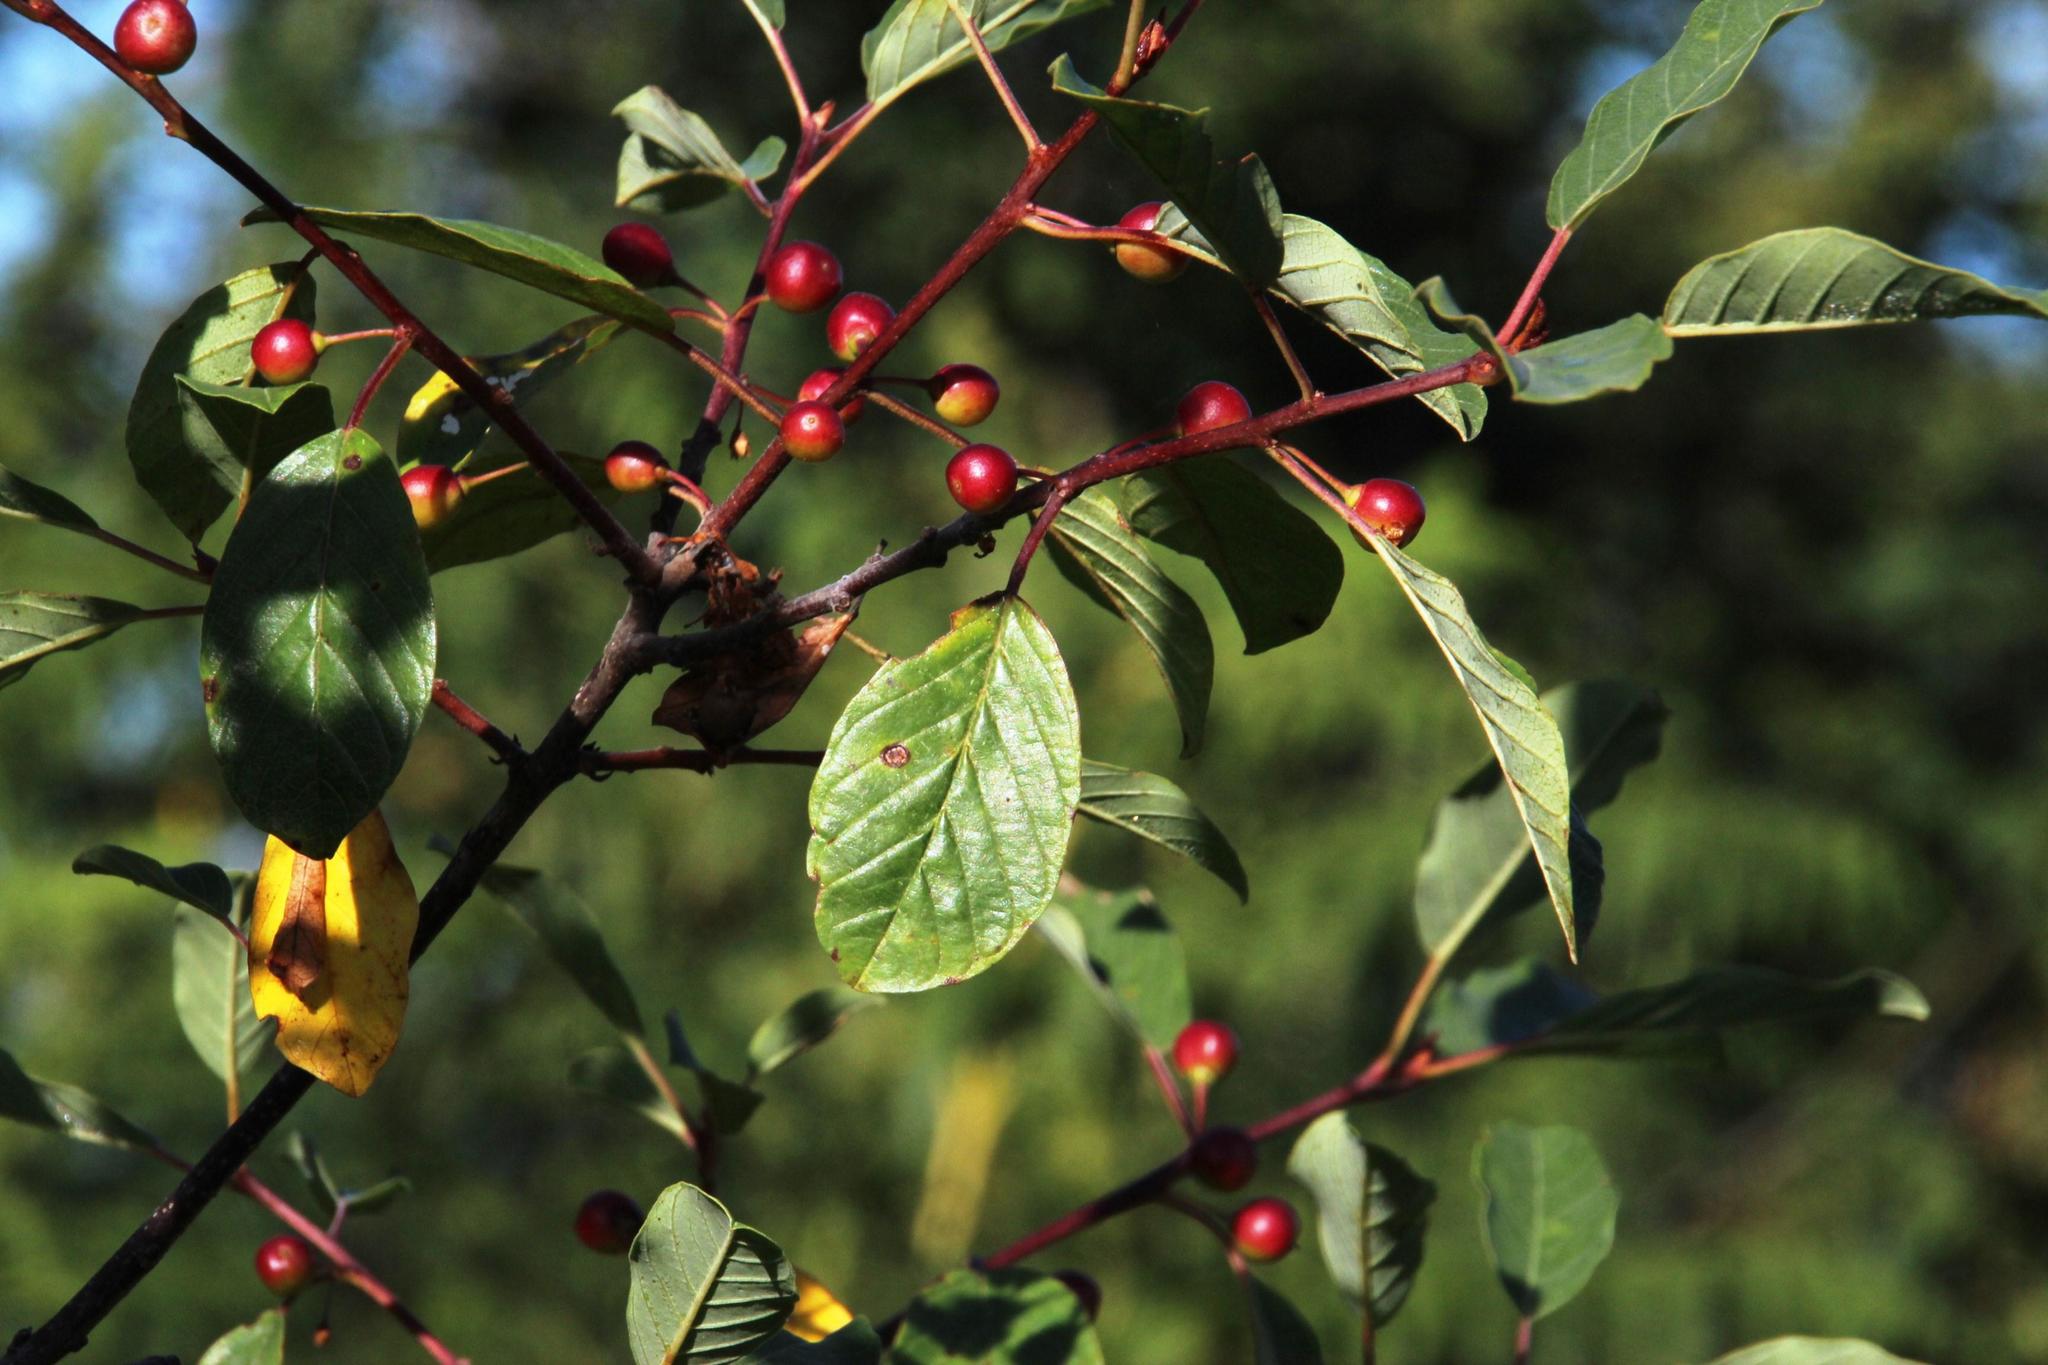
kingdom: Plantae
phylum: Tracheophyta
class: Magnoliopsida
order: Rosales
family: Rhamnaceae
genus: Frangula
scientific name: Frangula alnus
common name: Alder buckthorn
